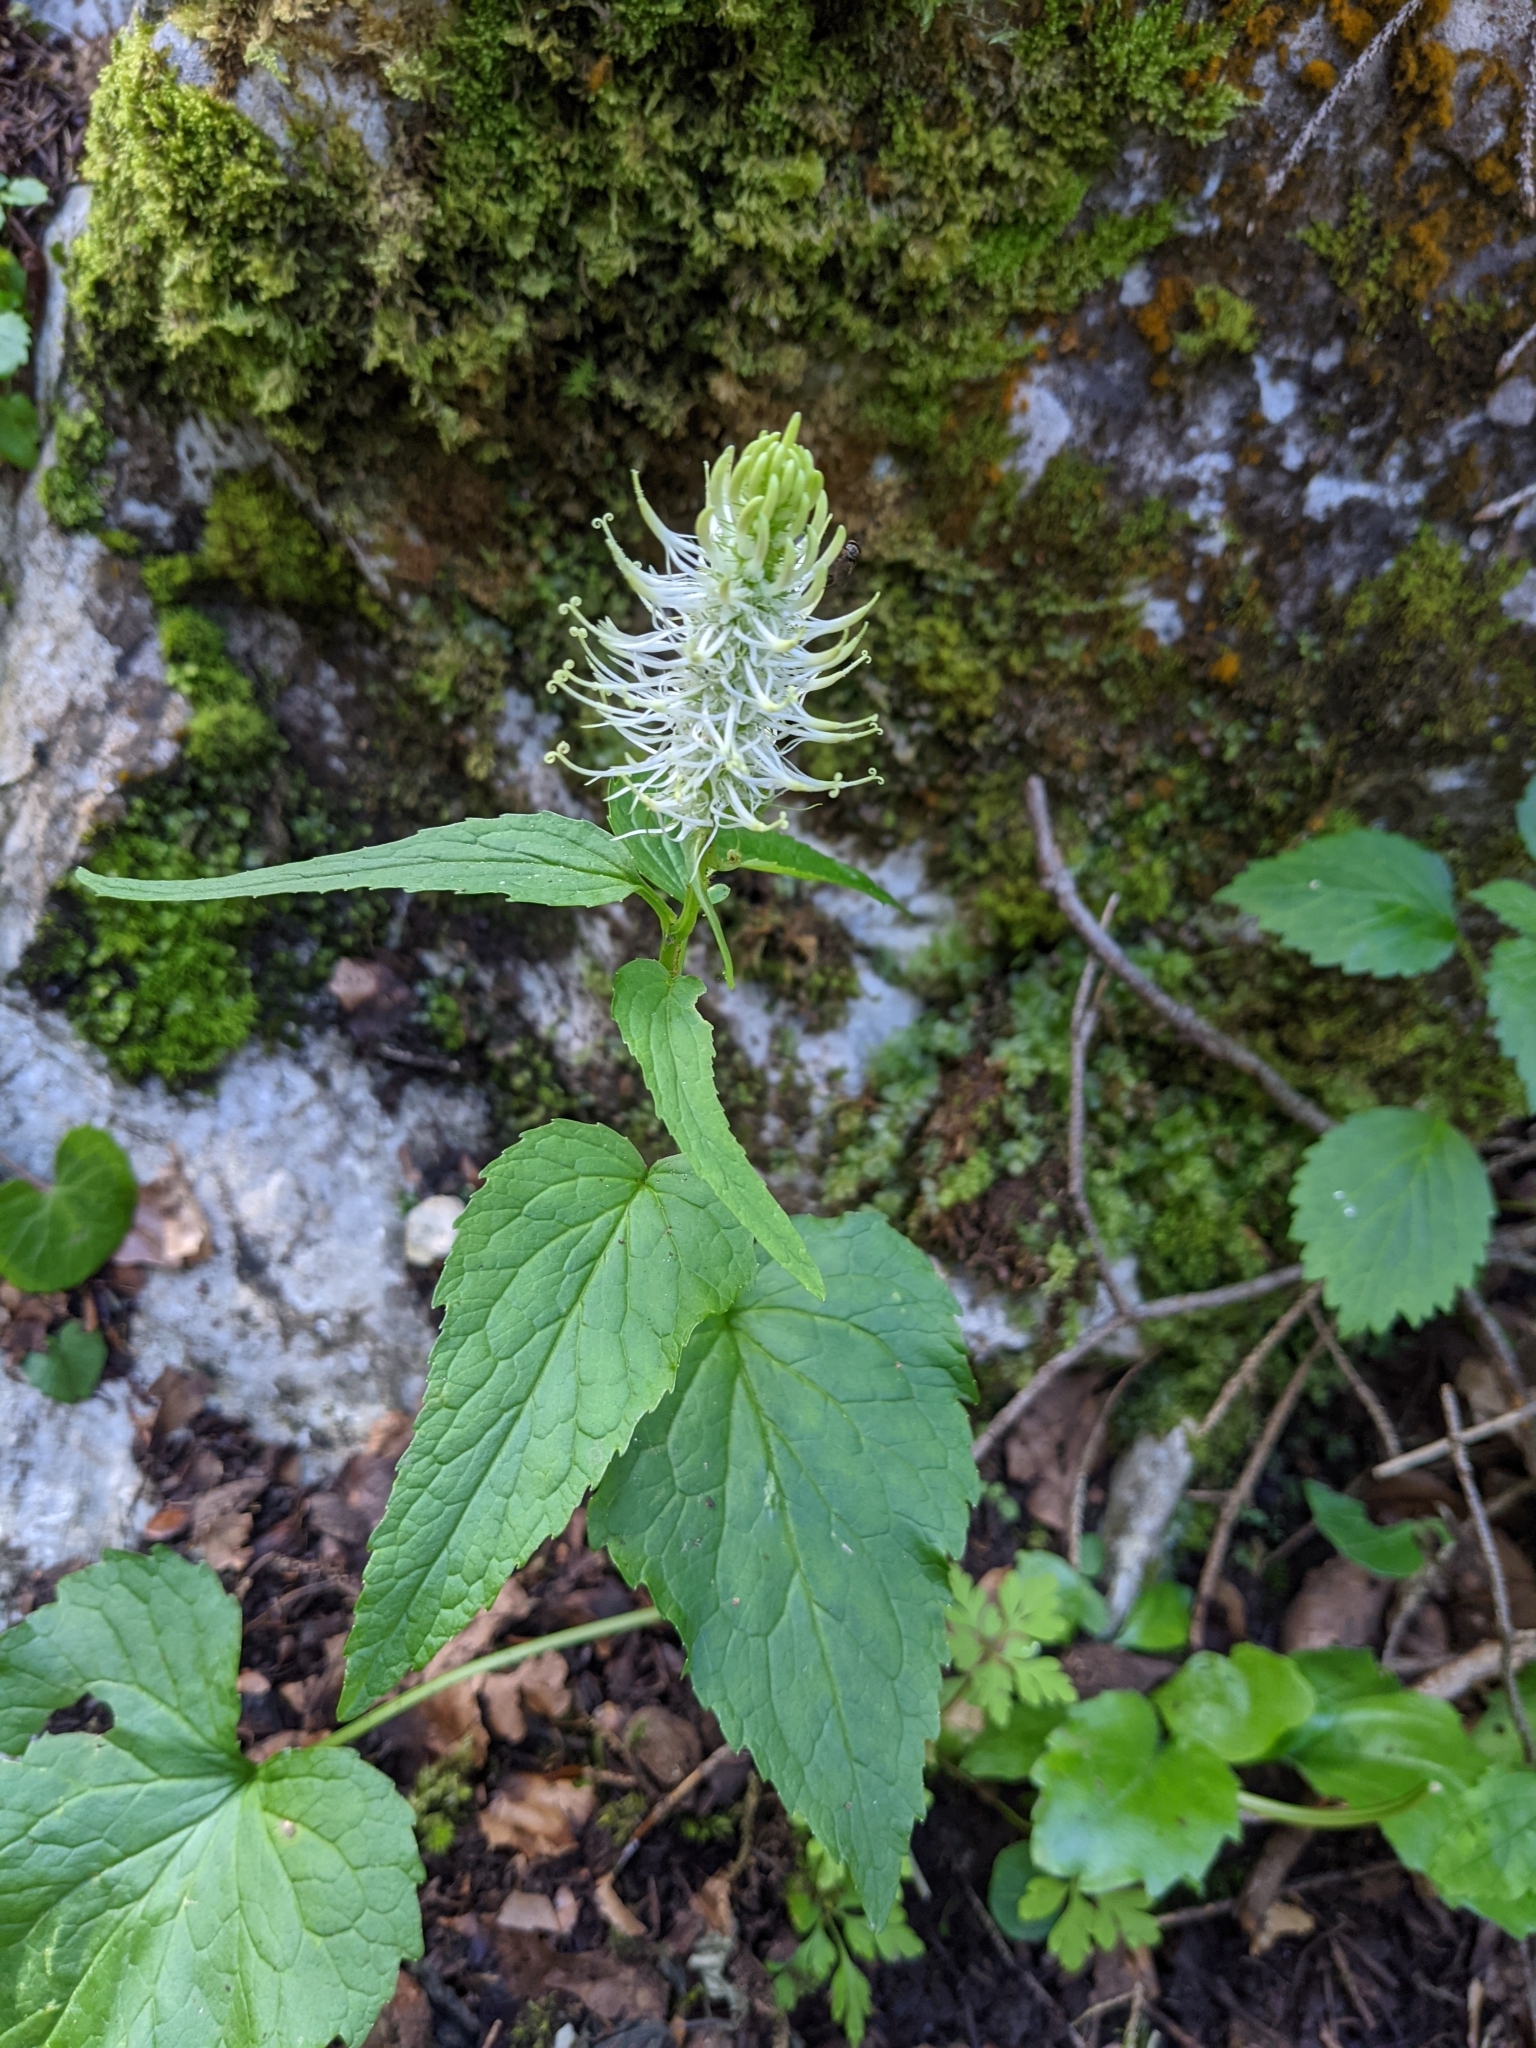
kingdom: Plantae
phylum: Tracheophyta
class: Magnoliopsida
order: Asterales
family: Campanulaceae
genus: Phyteuma
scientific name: Phyteuma spicatum
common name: Spiked rampion
